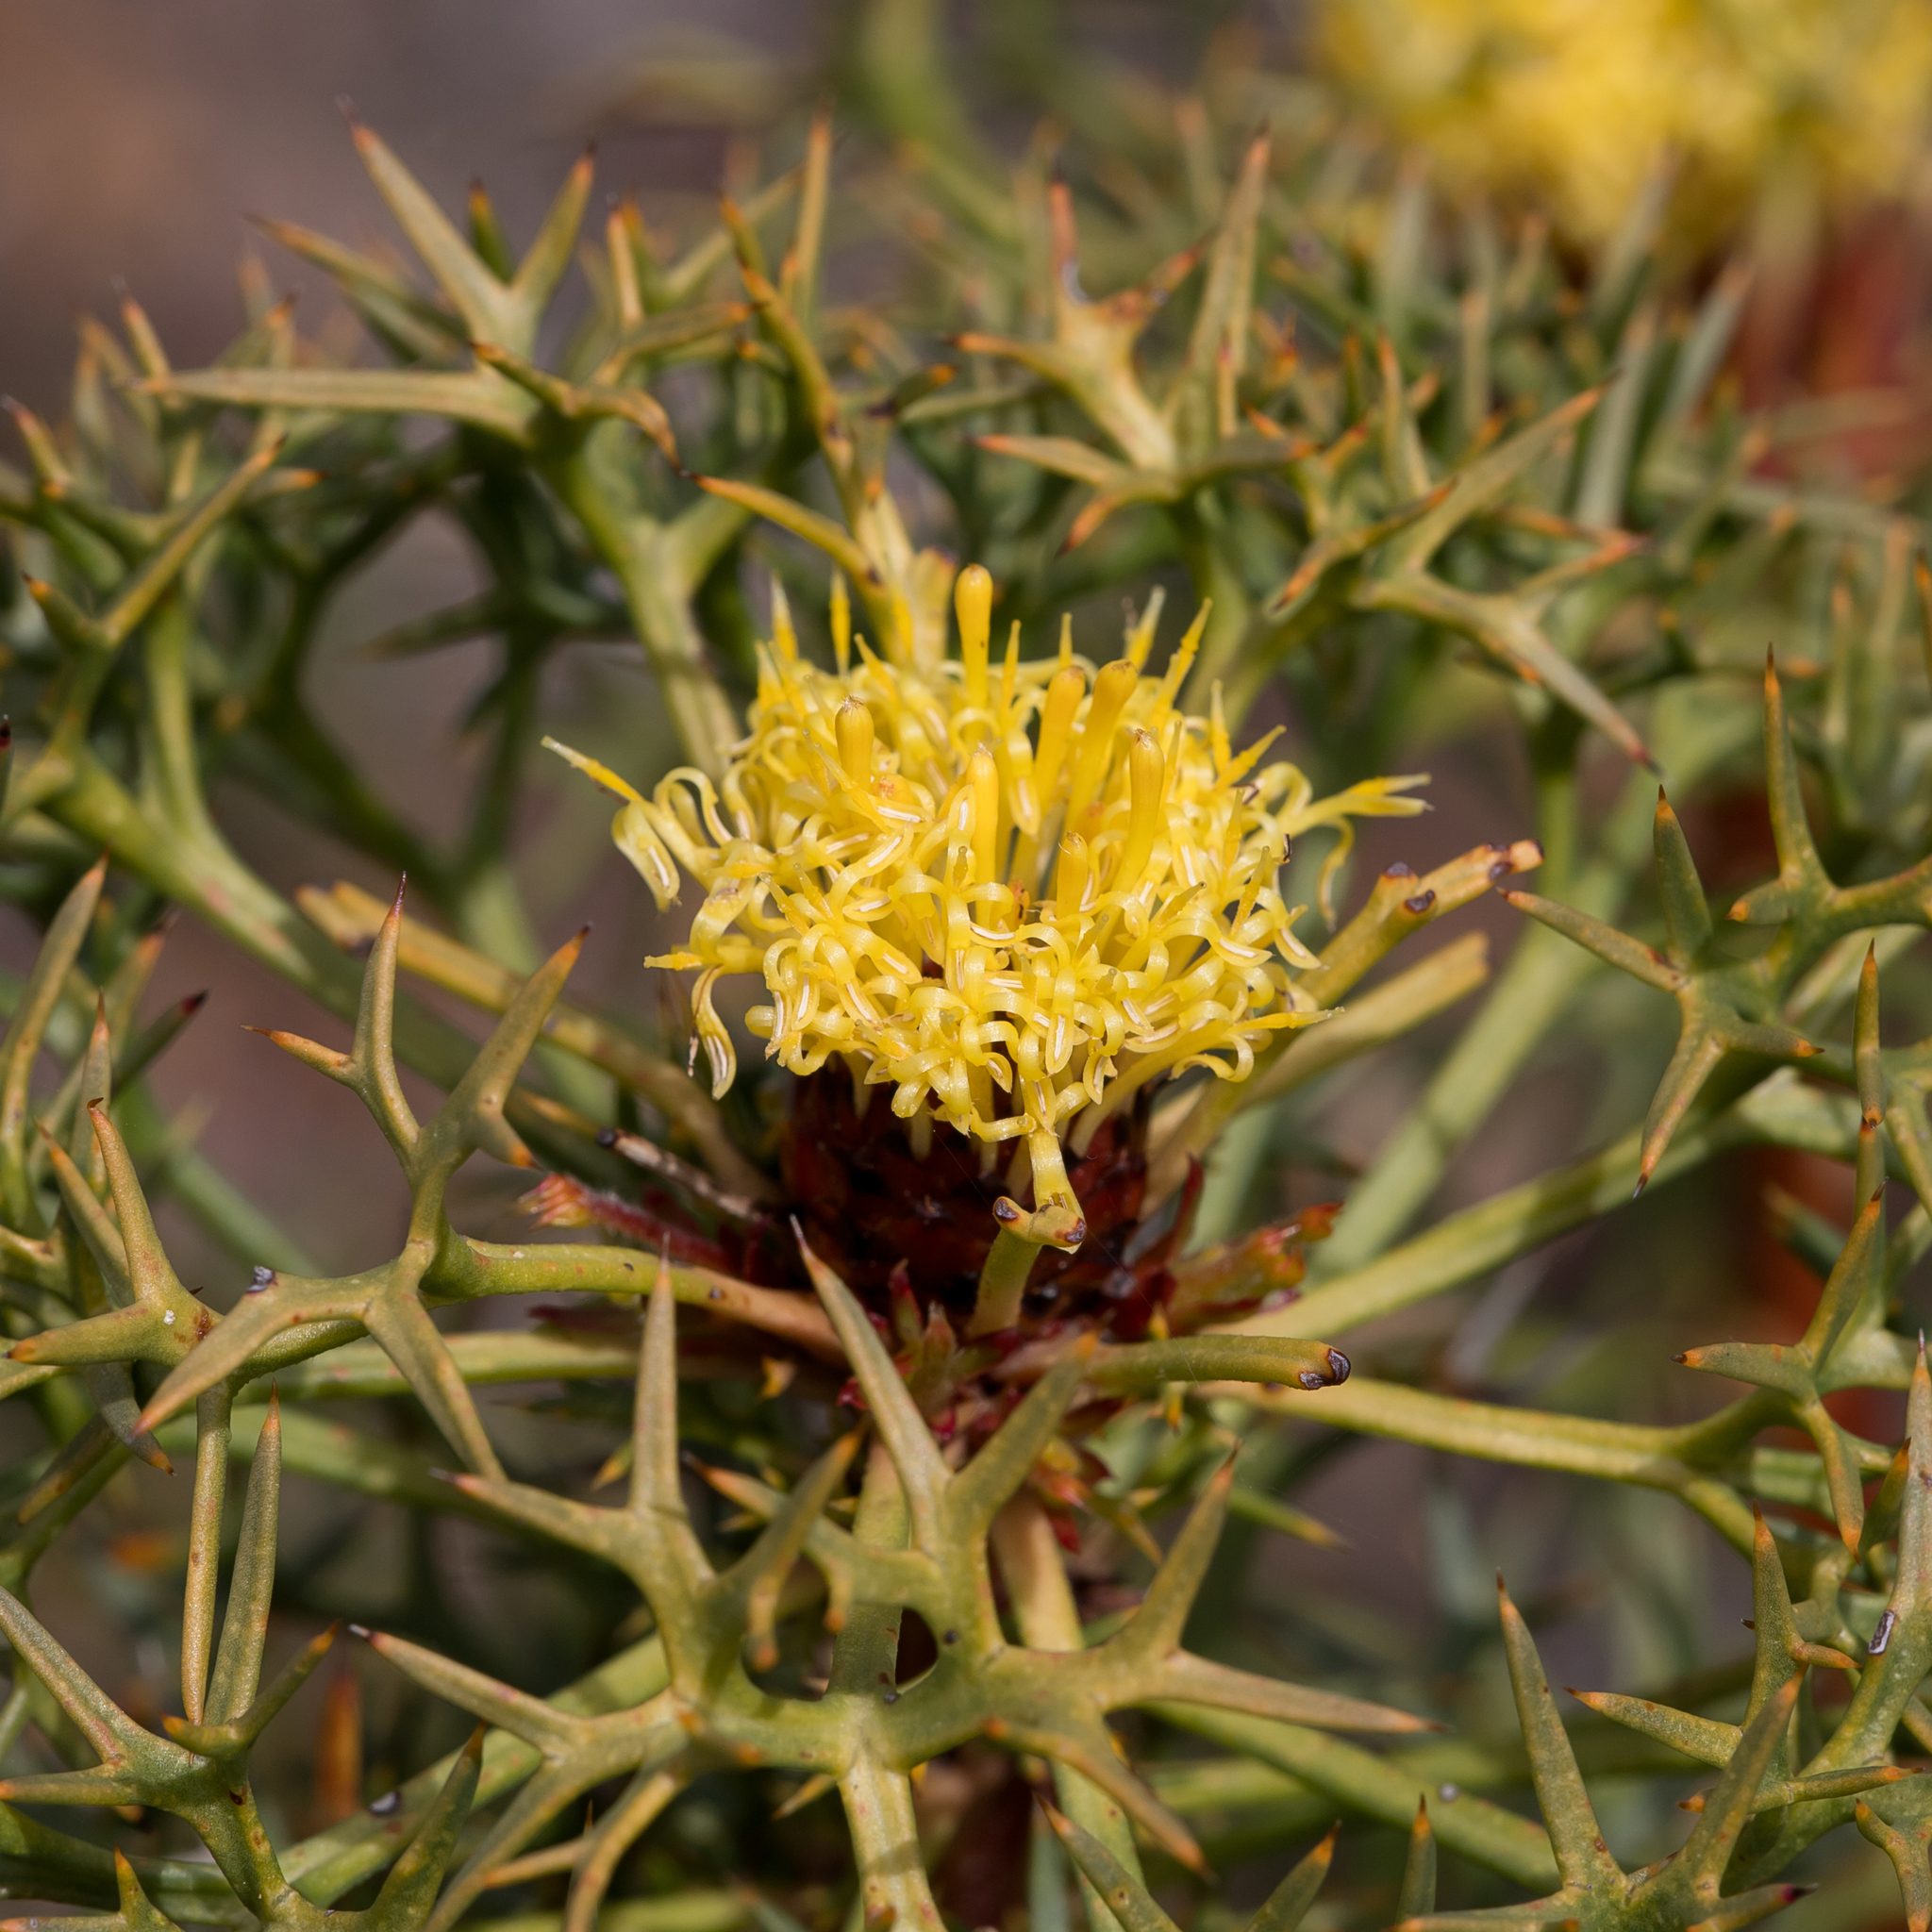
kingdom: Plantae
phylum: Tracheophyta
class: Magnoliopsida
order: Proteales
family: Proteaceae
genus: Isopogon
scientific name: Isopogon ceratophyllus
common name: Horny cone-bush
